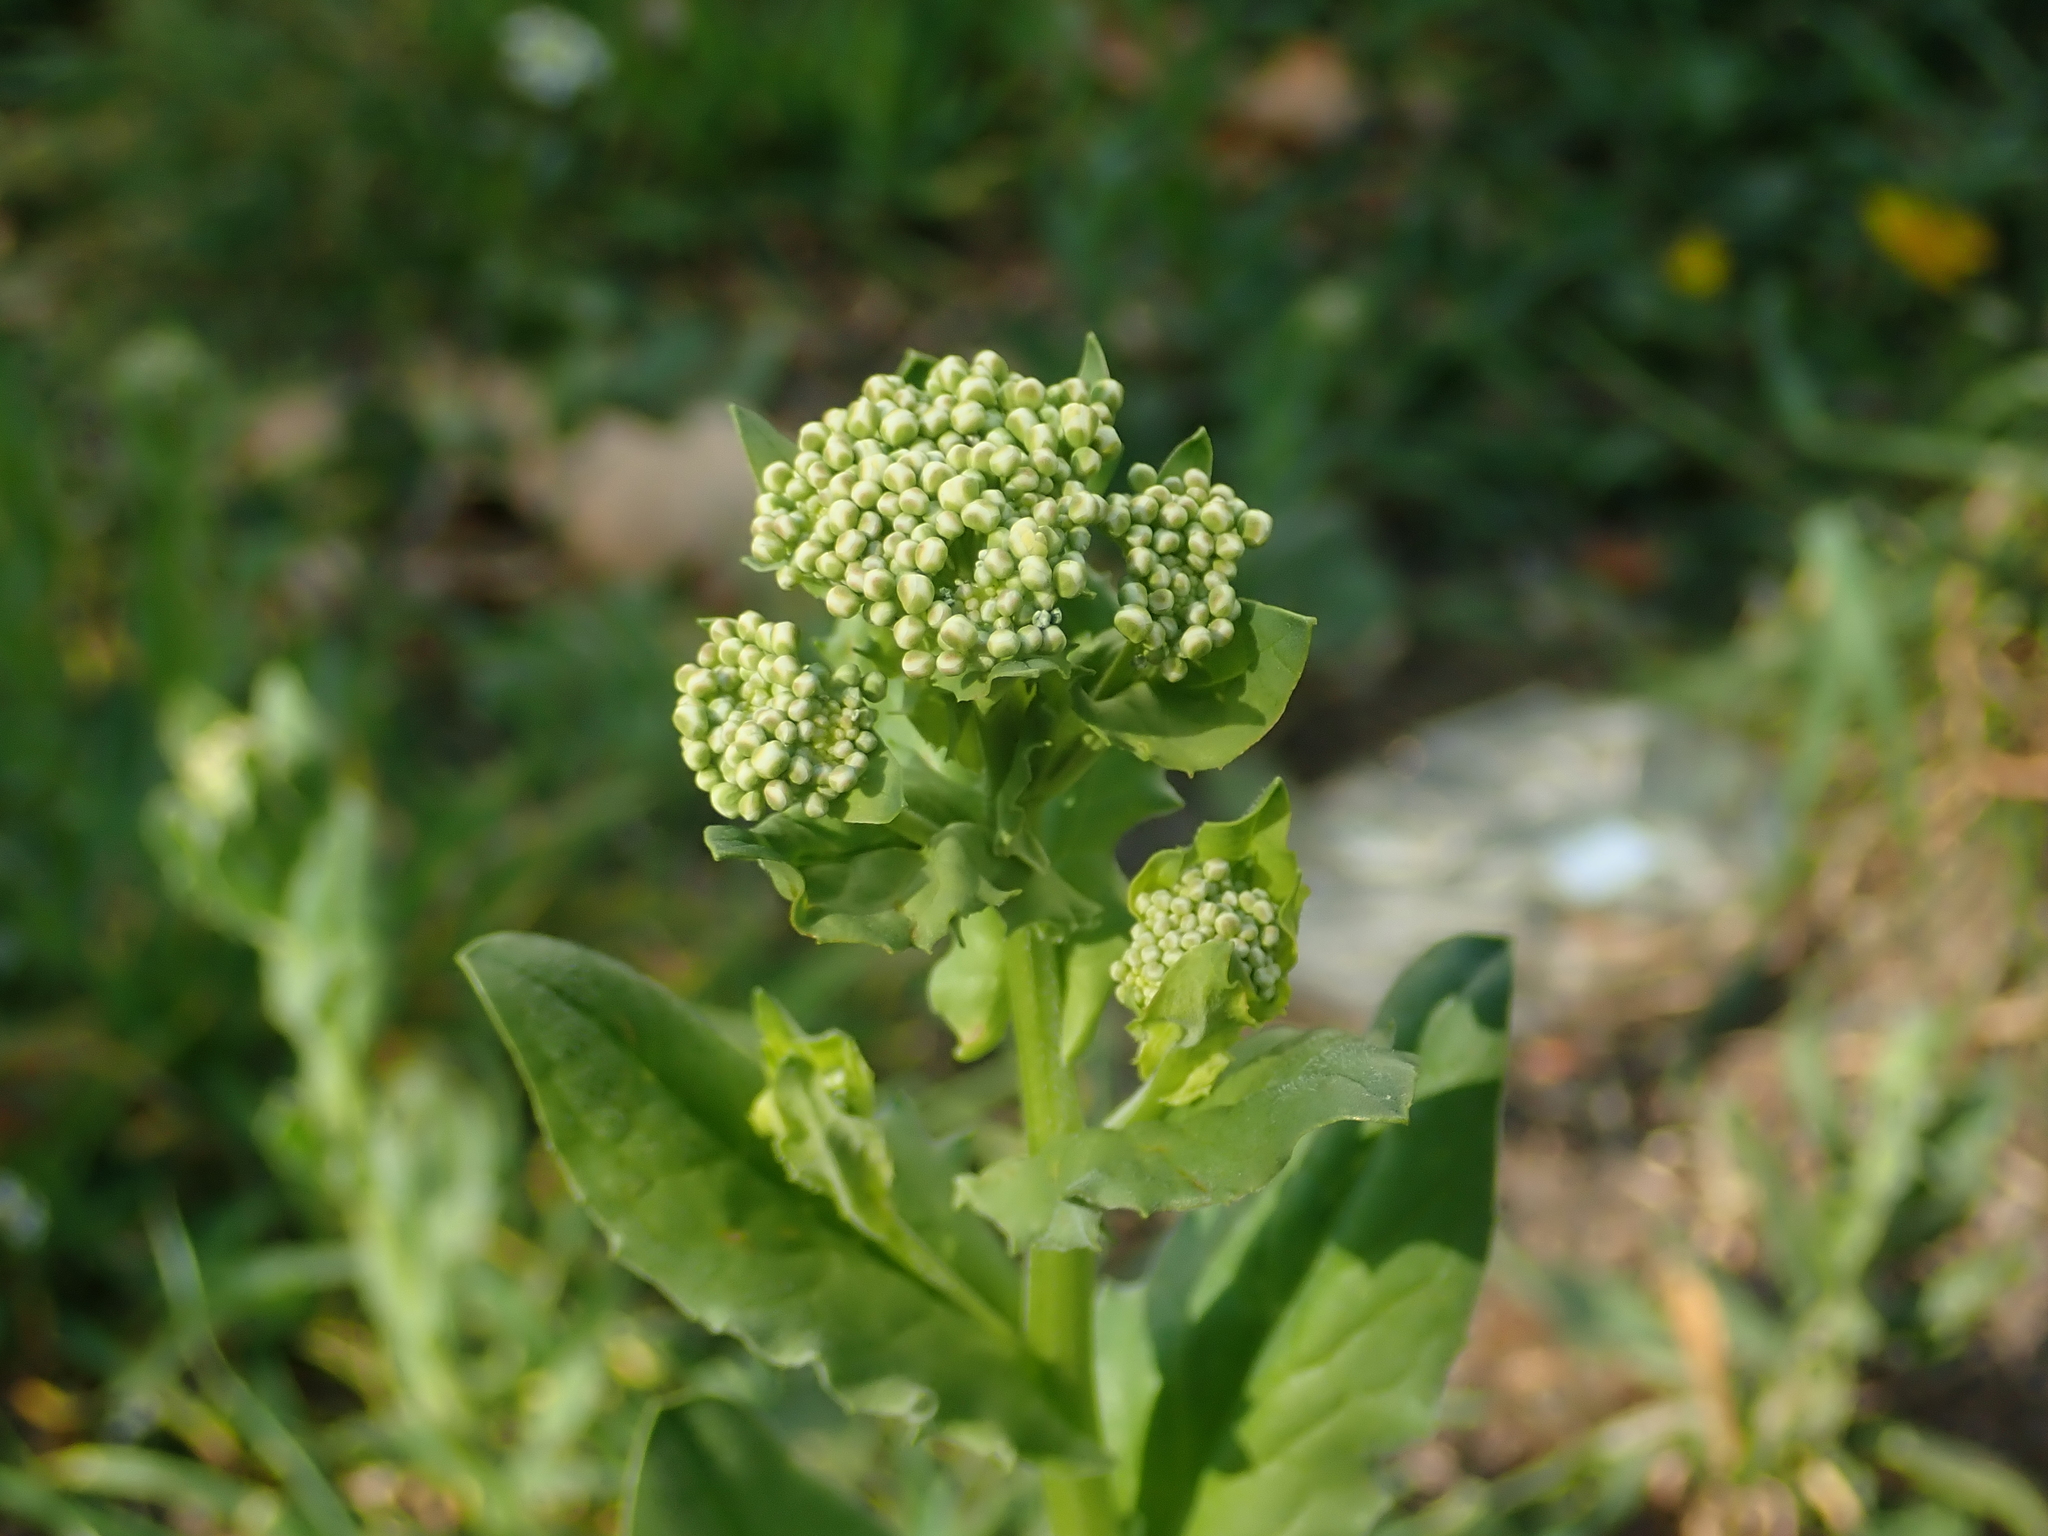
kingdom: Plantae
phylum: Tracheophyta
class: Magnoliopsida
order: Brassicales
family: Brassicaceae
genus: Lepidium
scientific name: Lepidium draba
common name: Hoary cress
